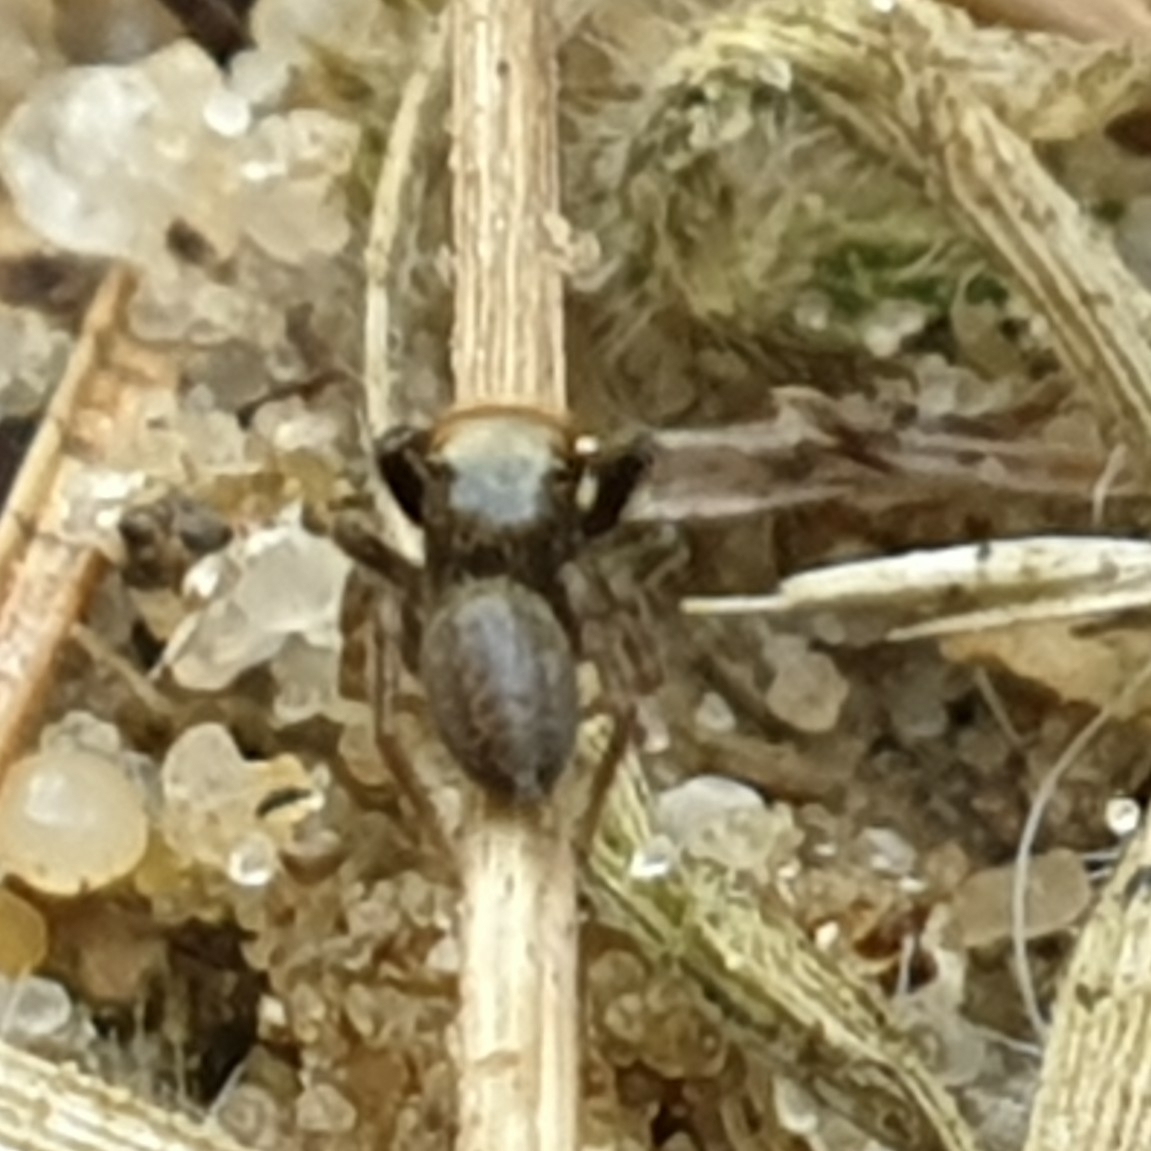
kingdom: Animalia
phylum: Arthropoda
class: Arachnida
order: Araneae
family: Salticidae
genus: Euophrys
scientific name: Euophrys frontalis
